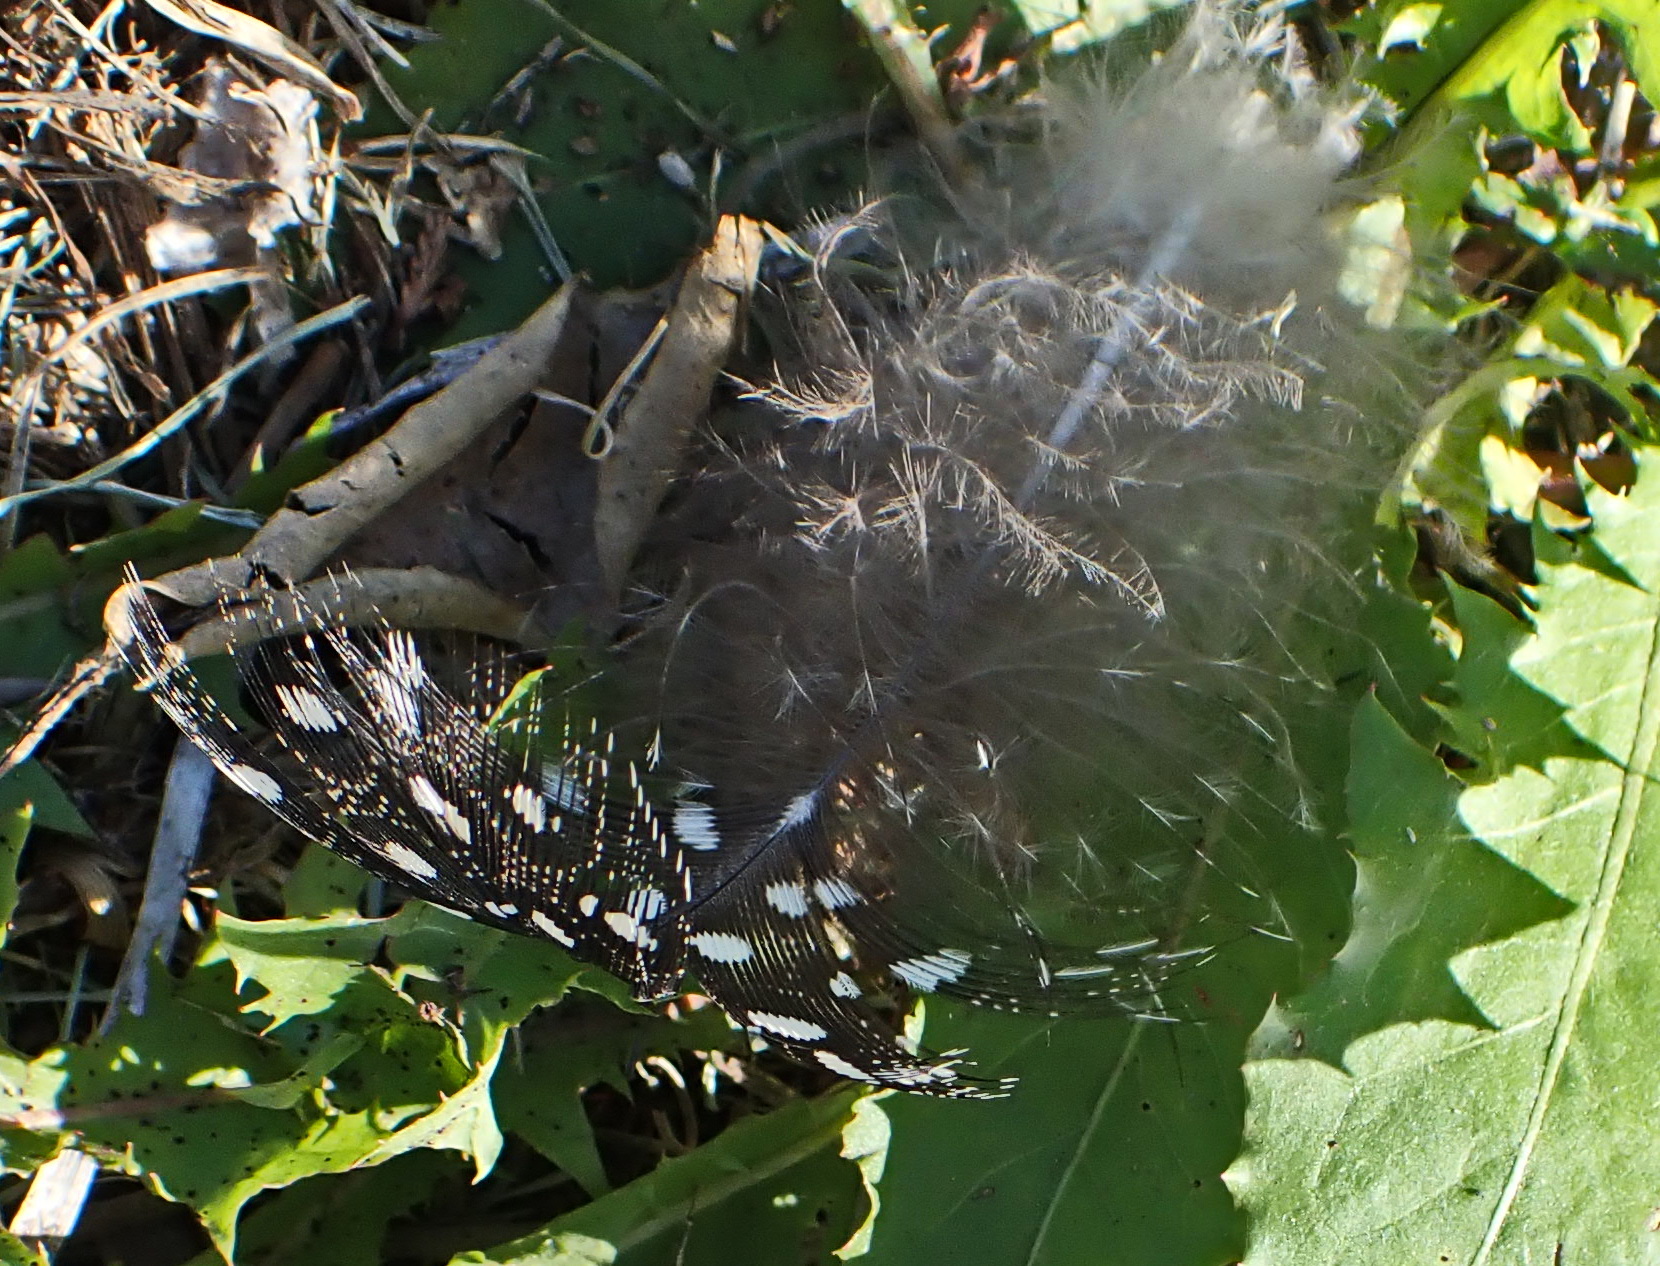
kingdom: Animalia
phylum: Chordata
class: Aves
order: Galliformes
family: Numididae
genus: Numida
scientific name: Numida meleagris
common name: Helmeted guineafowl
